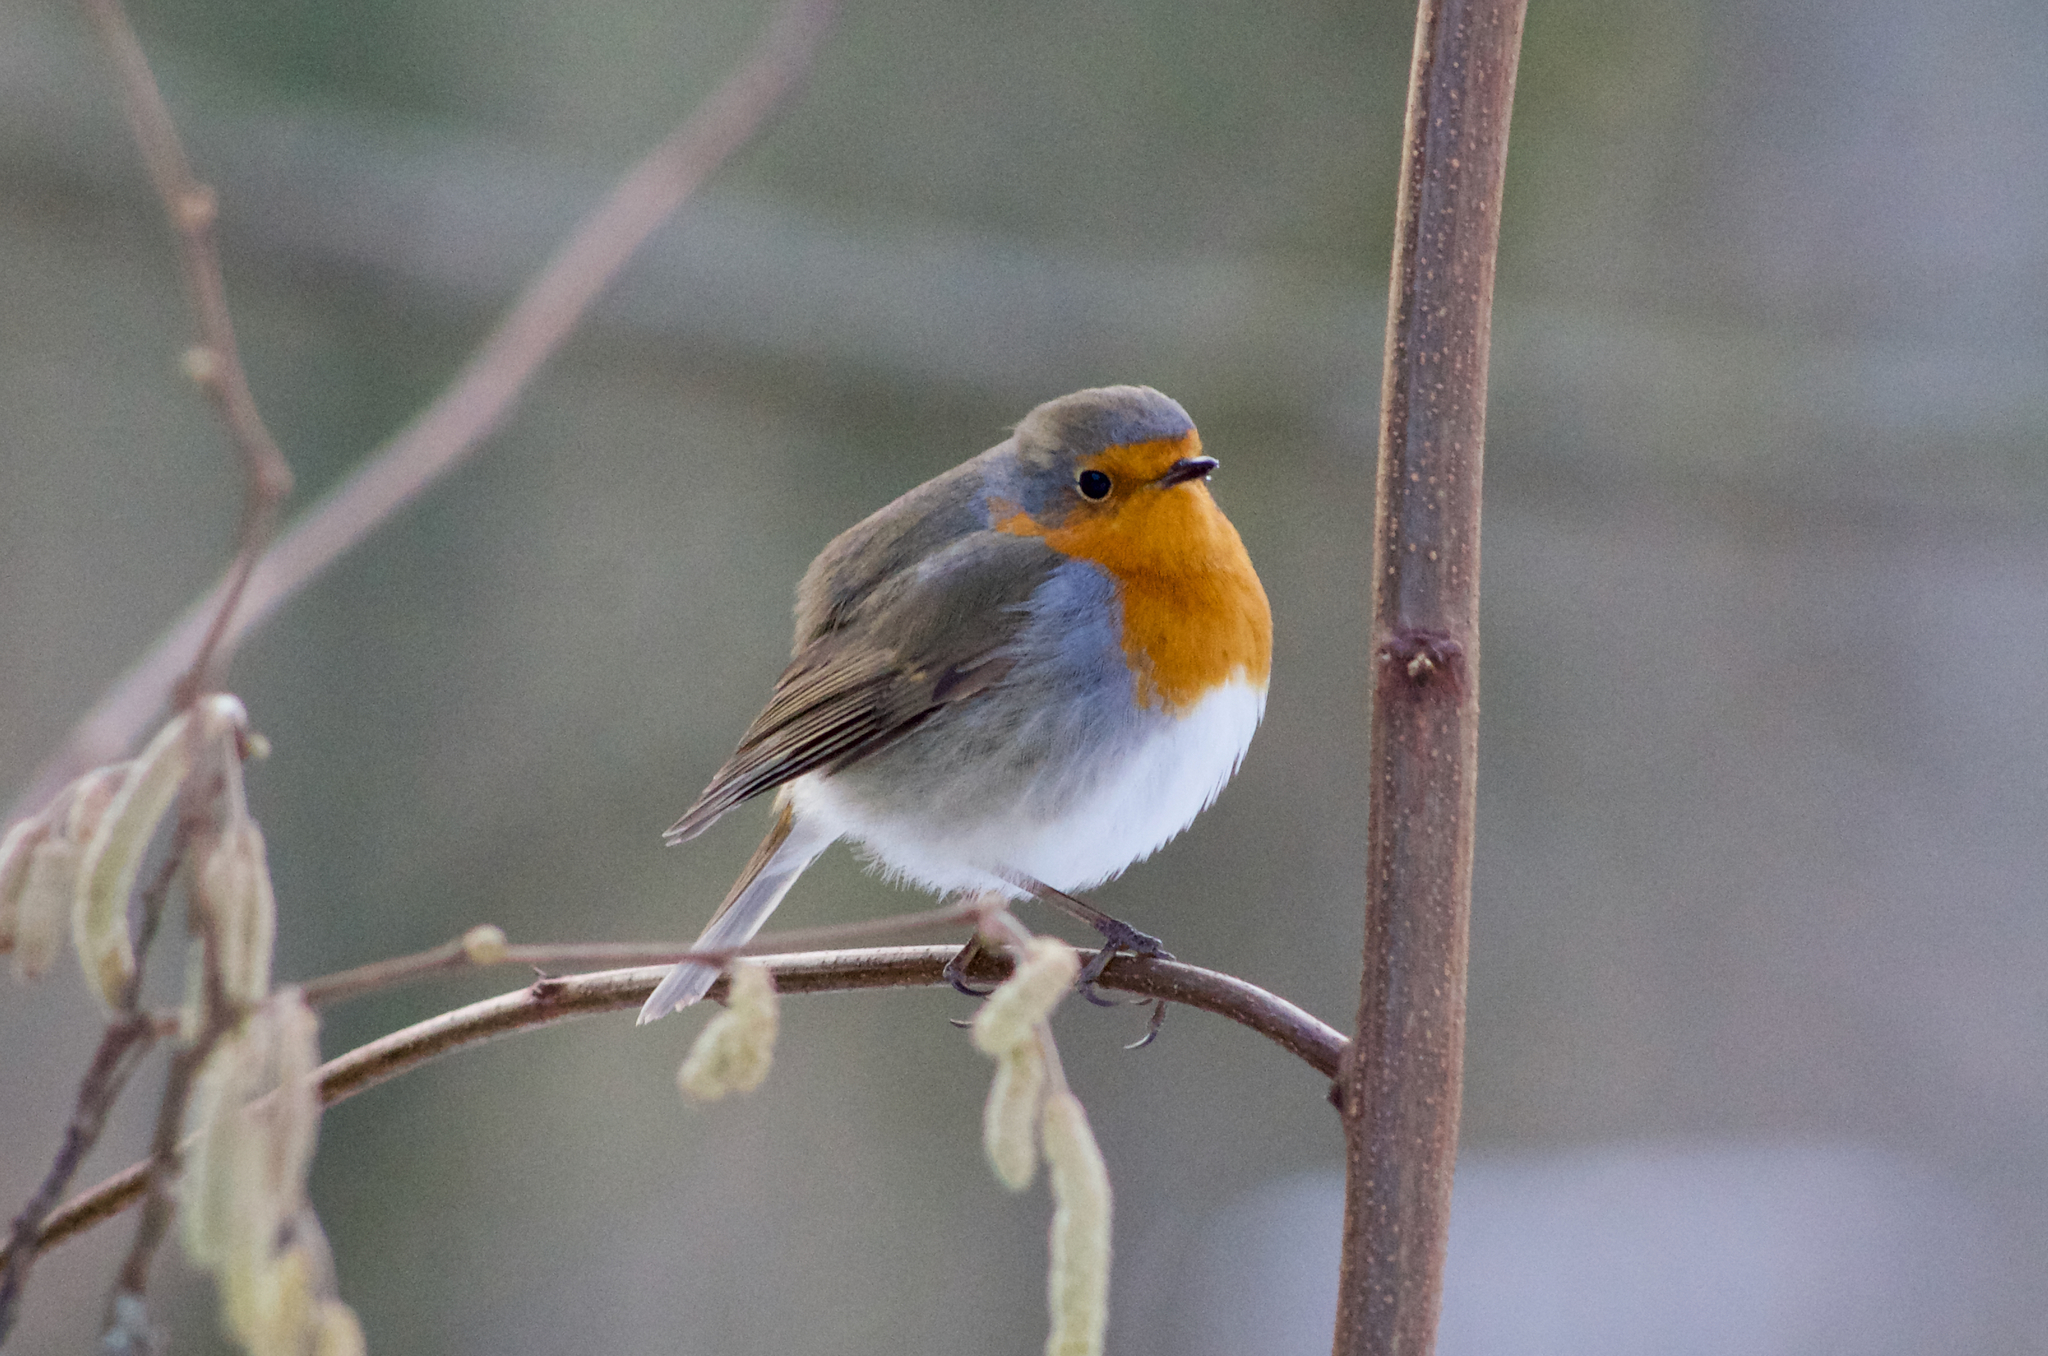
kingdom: Animalia
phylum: Chordata
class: Aves
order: Passeriformes
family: Muscicapidae
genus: Erithacus
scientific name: Erithacus rubecula
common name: European robin
